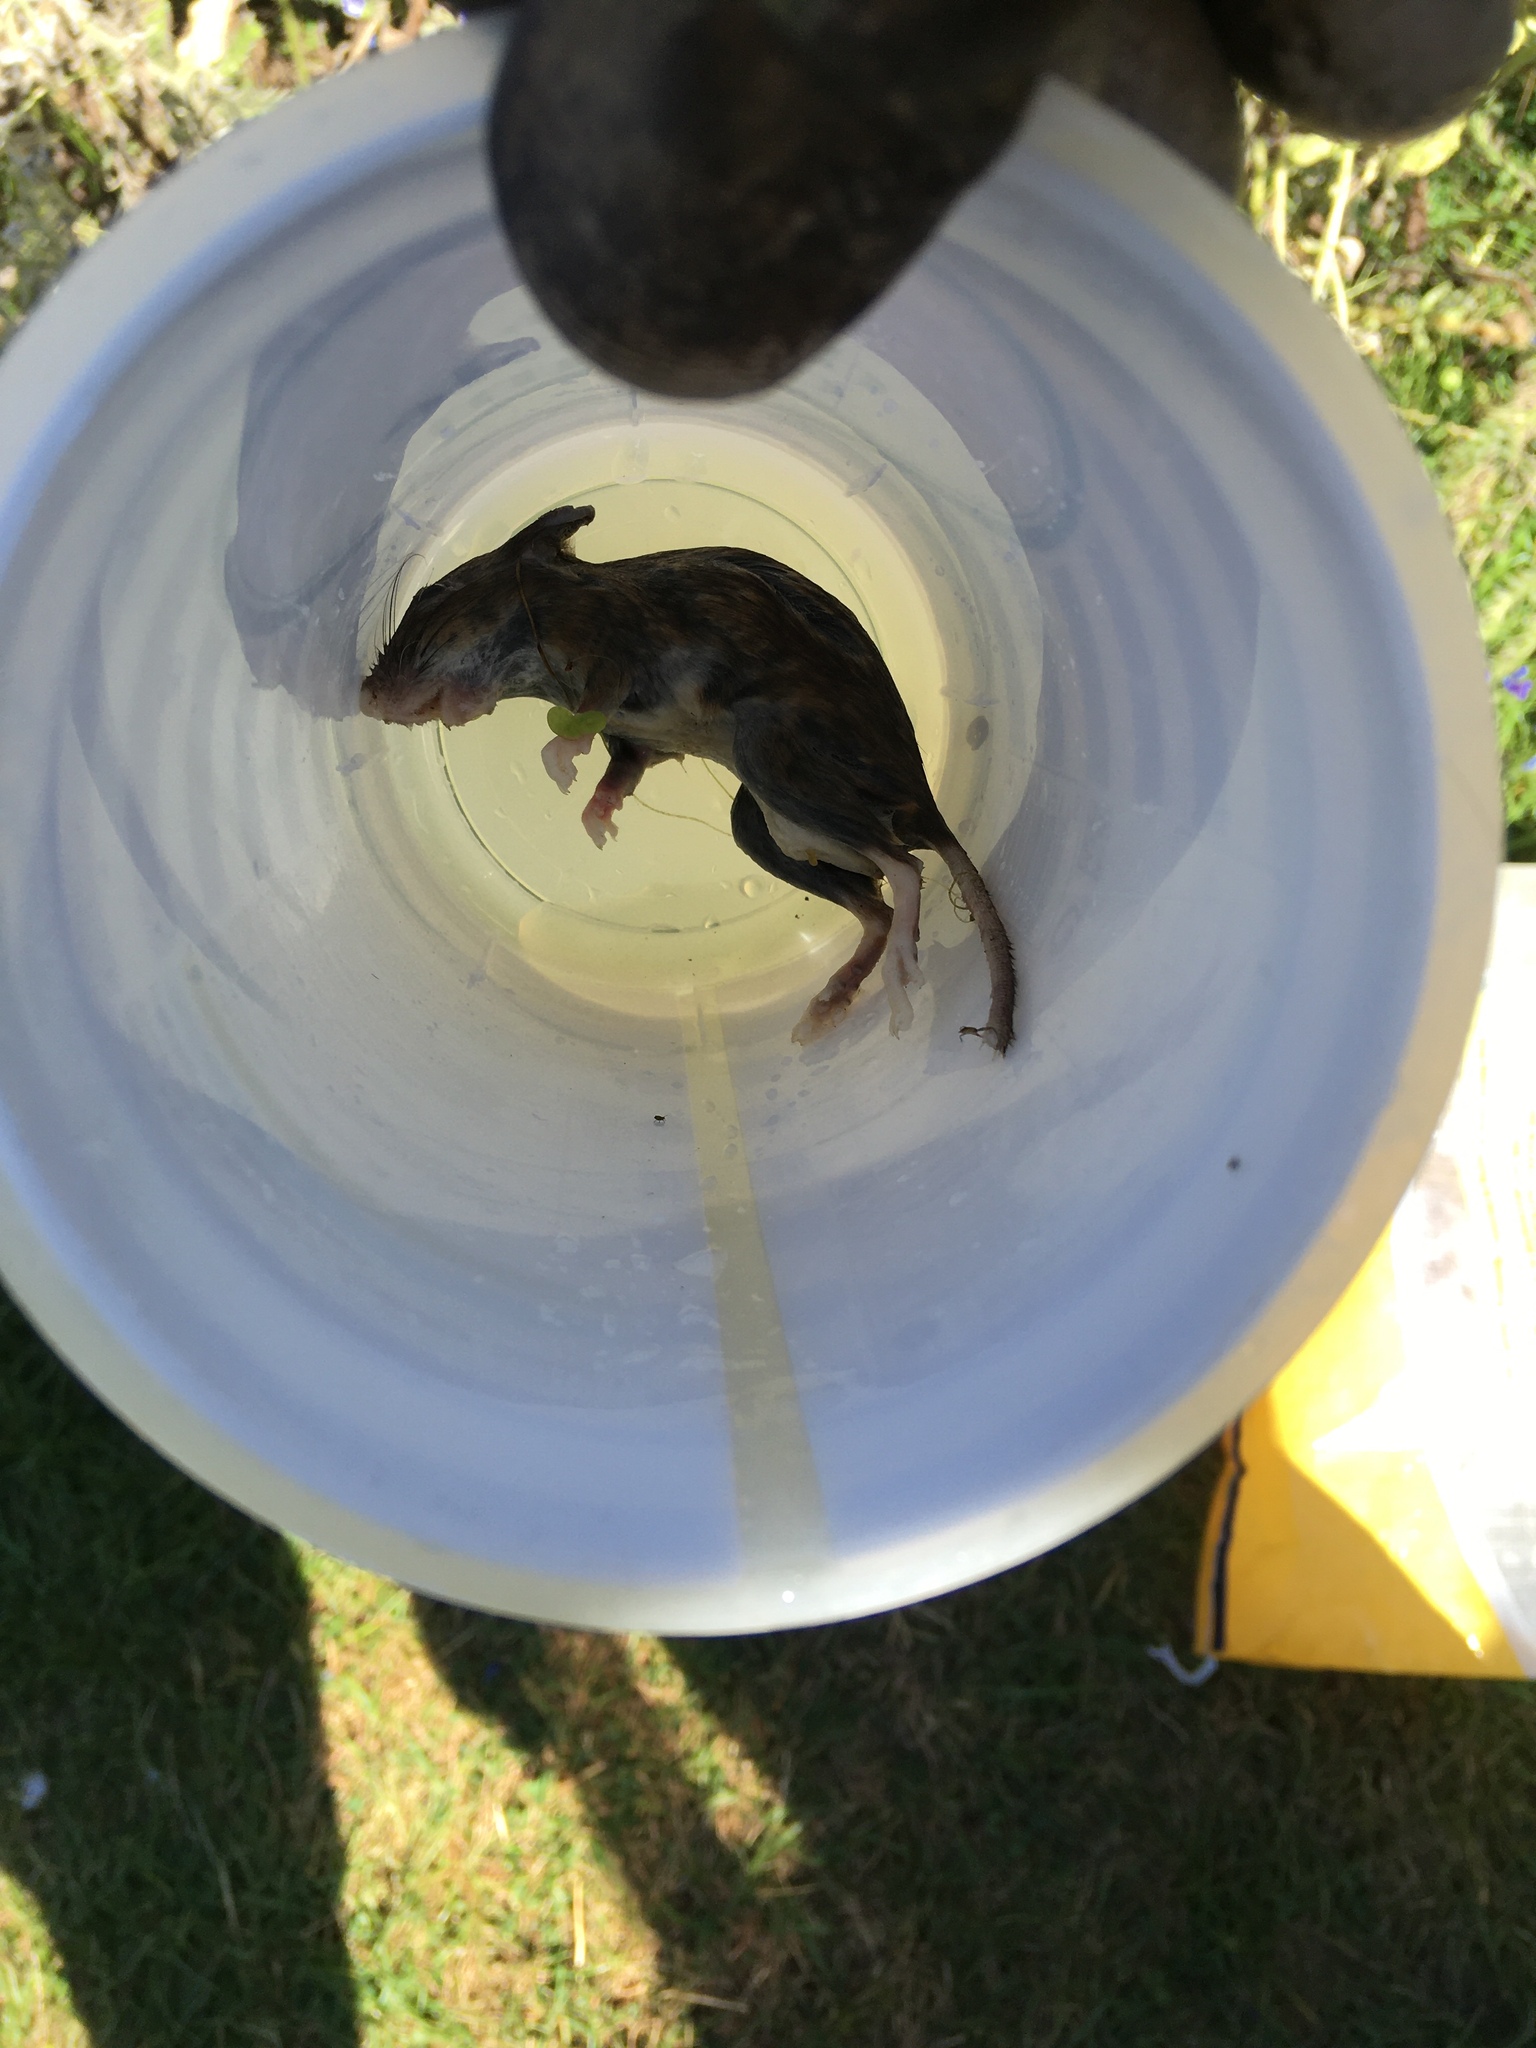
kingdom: Animalia
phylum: Chordata
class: Mammalia
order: Rodentia
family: Muridae
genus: Apodemus
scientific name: Apodemus sylvaticus
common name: Wood mouse
